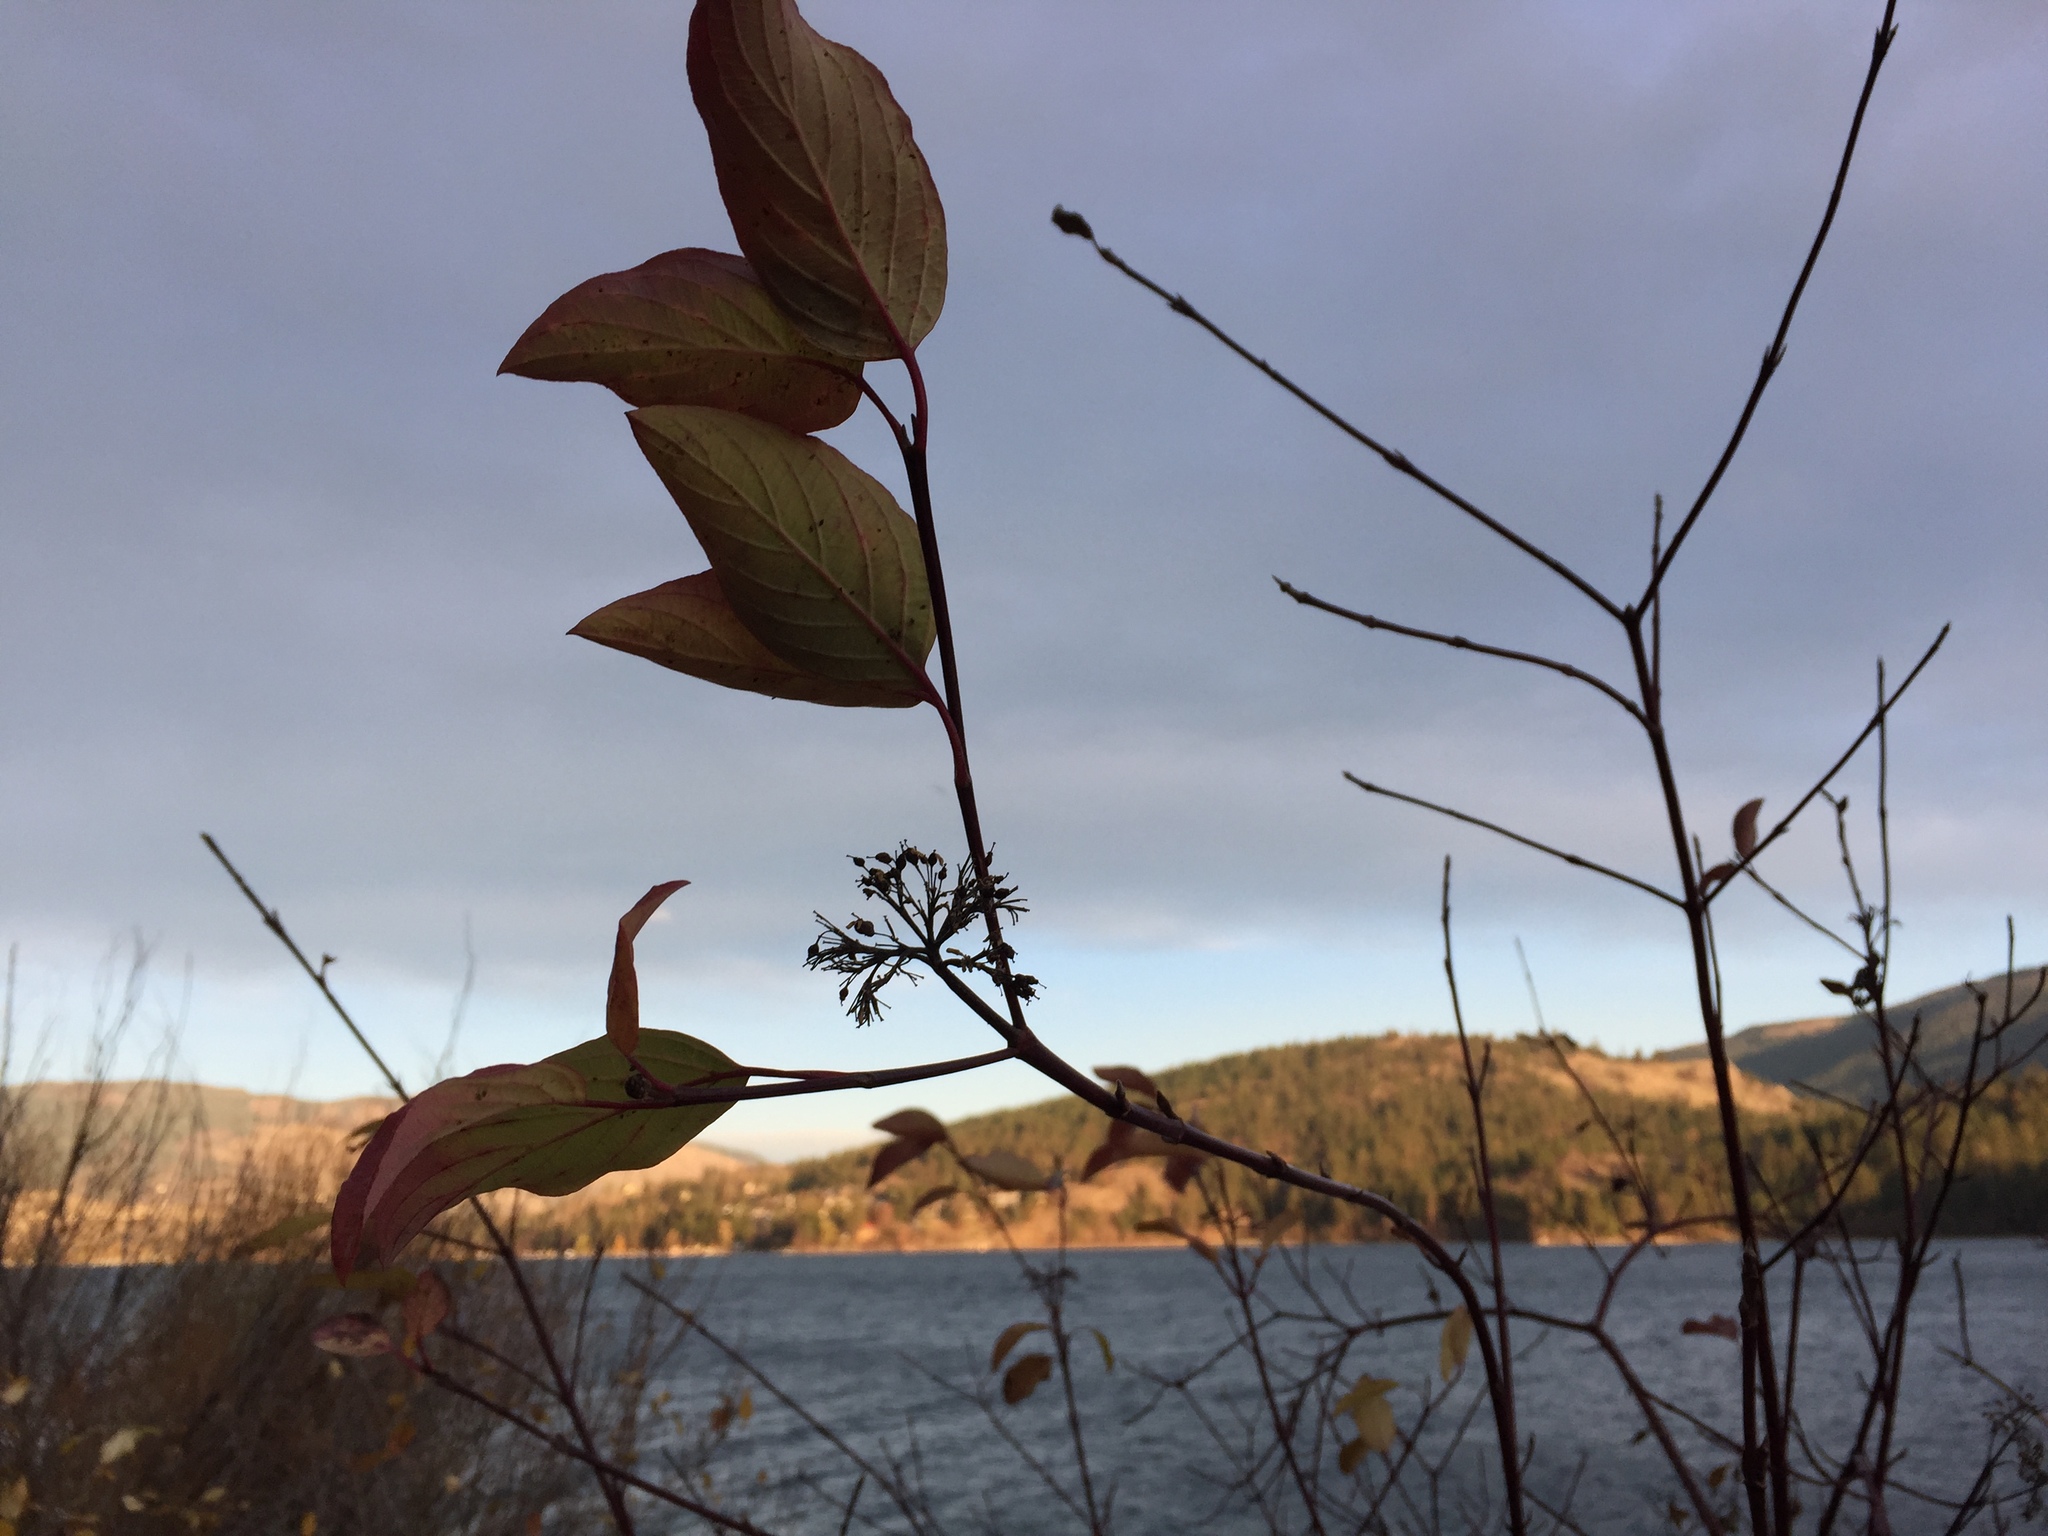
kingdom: Plantae
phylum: Tracheophyta
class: Magnoliopsida
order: Cornales
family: Cornaceae
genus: Cornus
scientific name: Cornus sericea
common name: Red-osier dogwood
